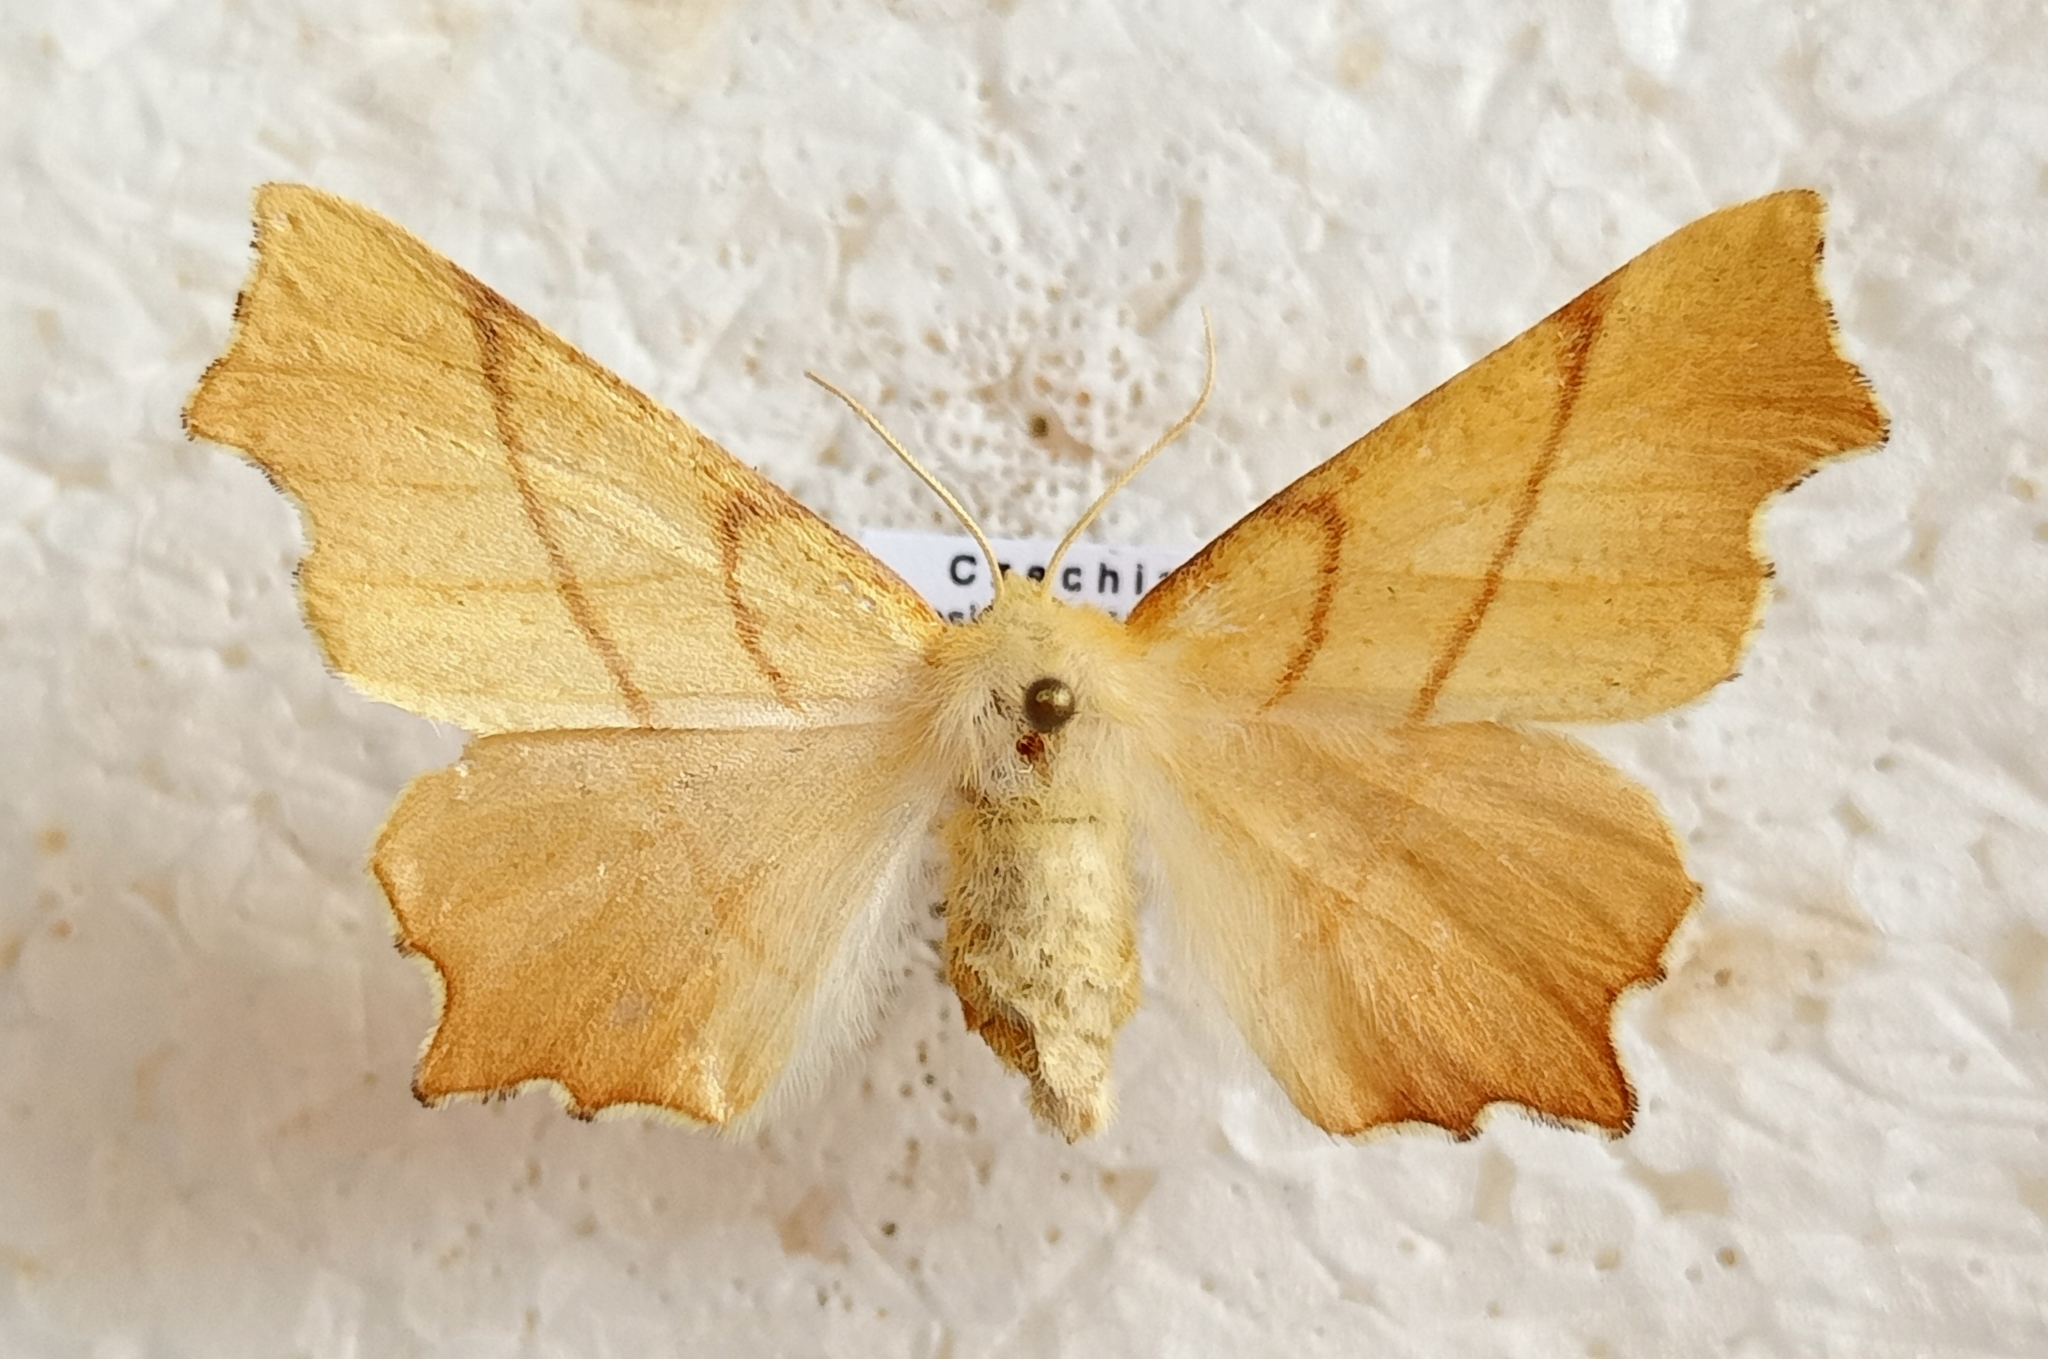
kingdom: Animalia
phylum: Arthropoda
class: Insecta
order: Lepidoptera
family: Geometridae
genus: Ennomos
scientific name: Ennomos erosaria
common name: September thorn
